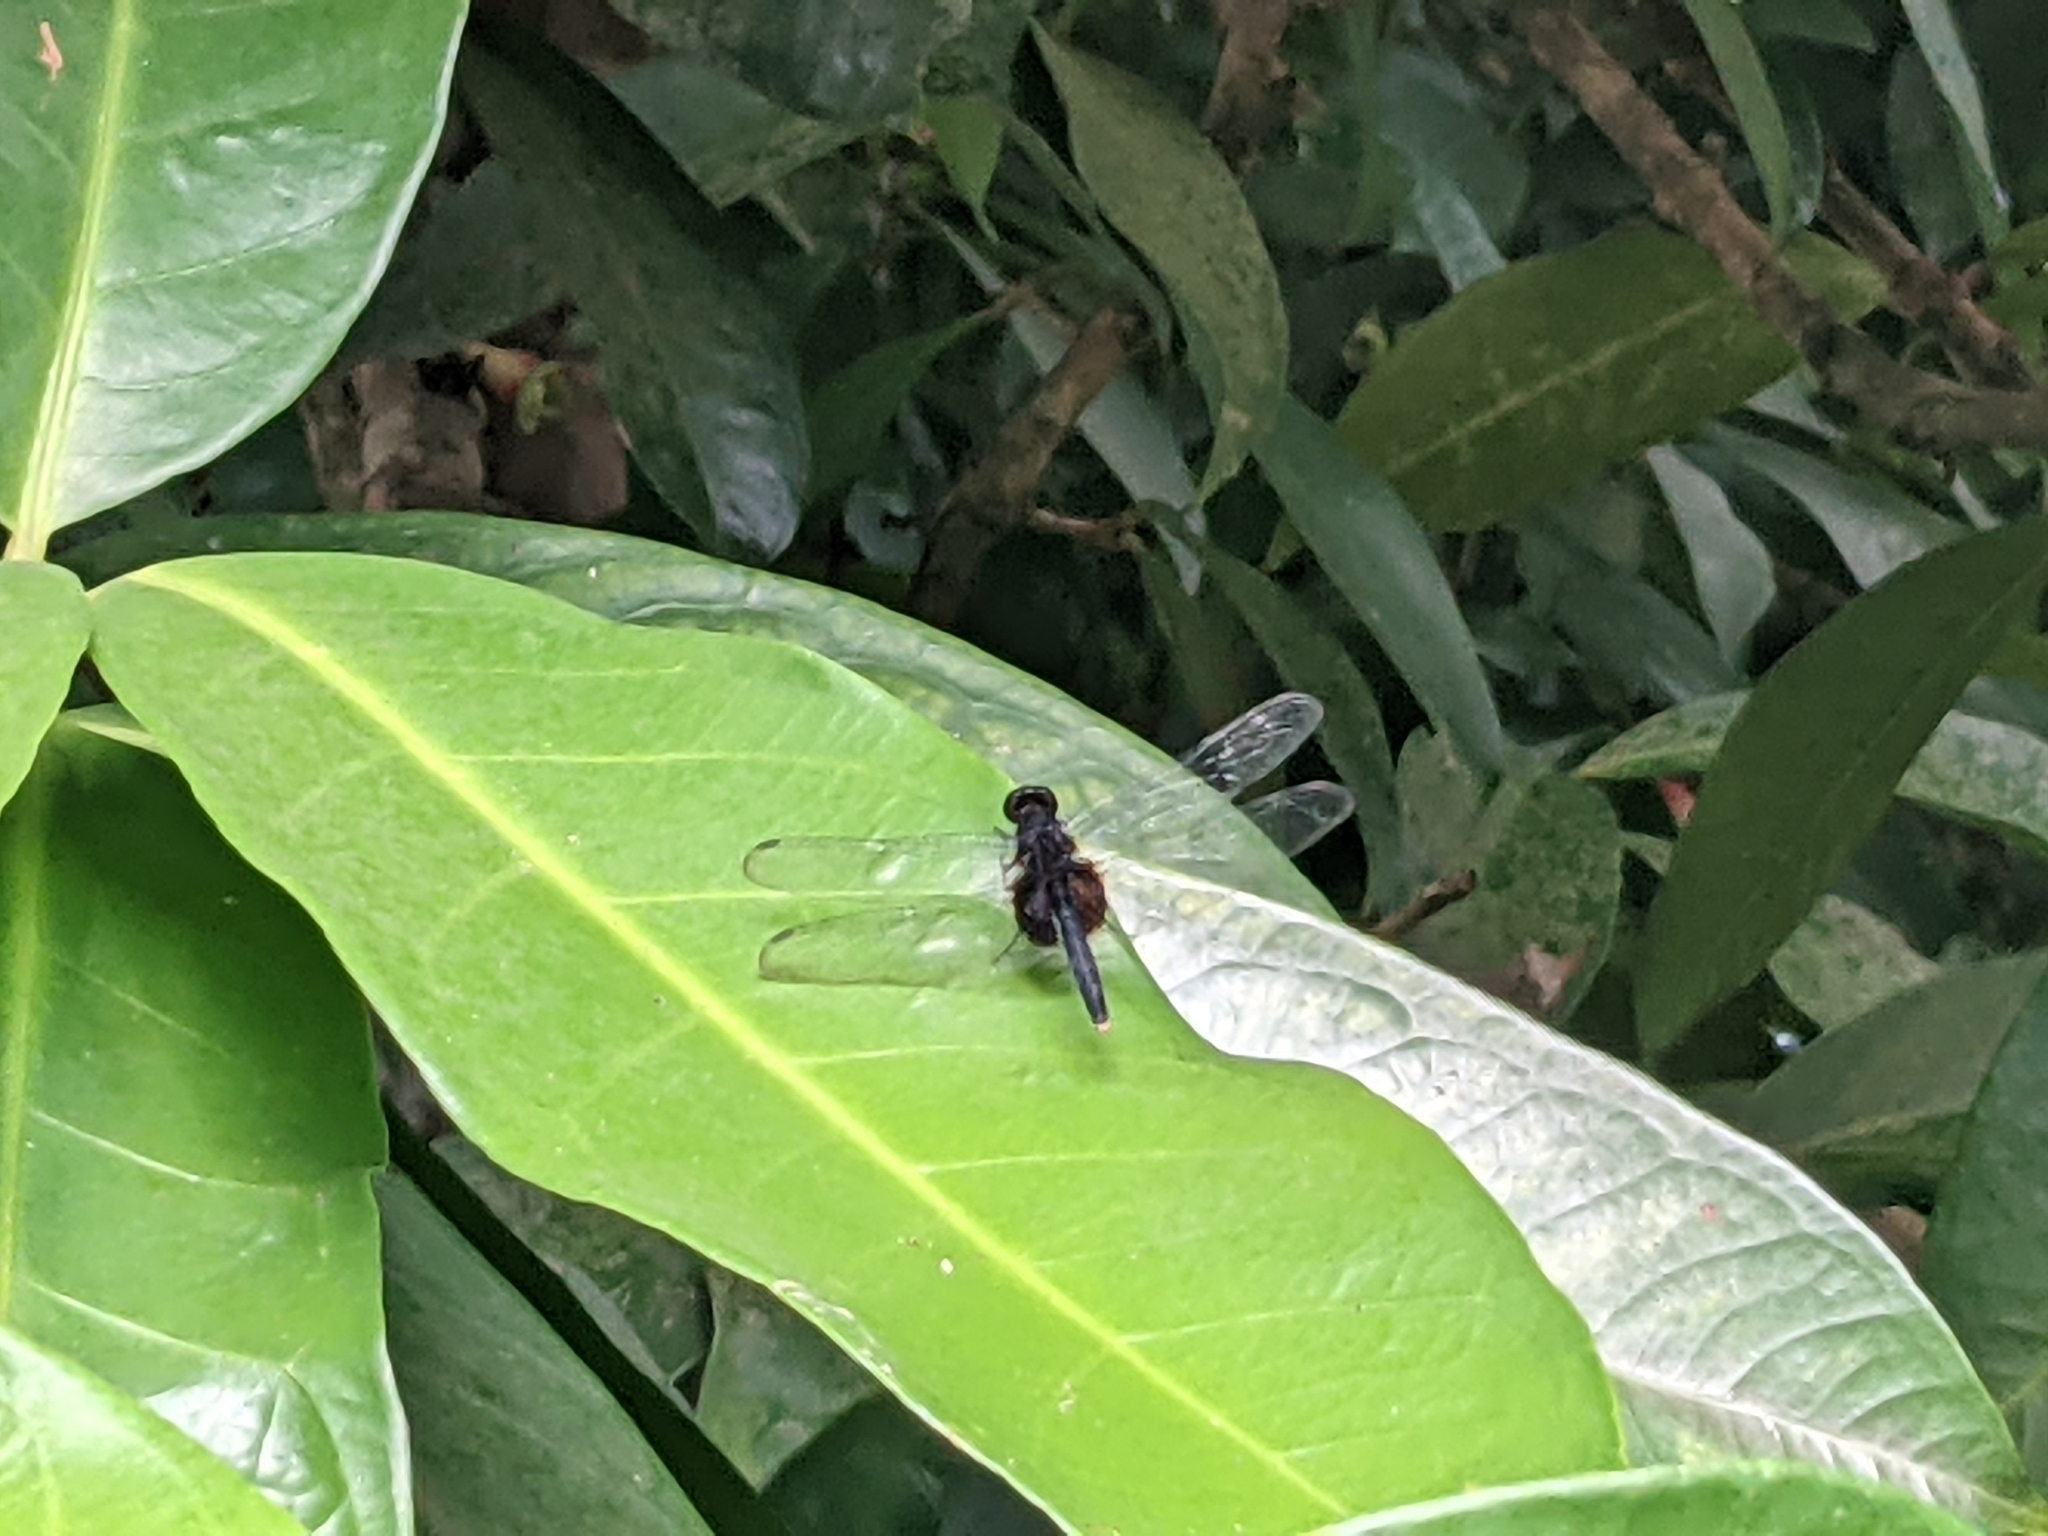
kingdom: Animalia
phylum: Arthropoda
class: Insecta
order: Odonata
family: Libellulidae
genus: Erythemis
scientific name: Erythemis attala
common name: Black pondhawk
